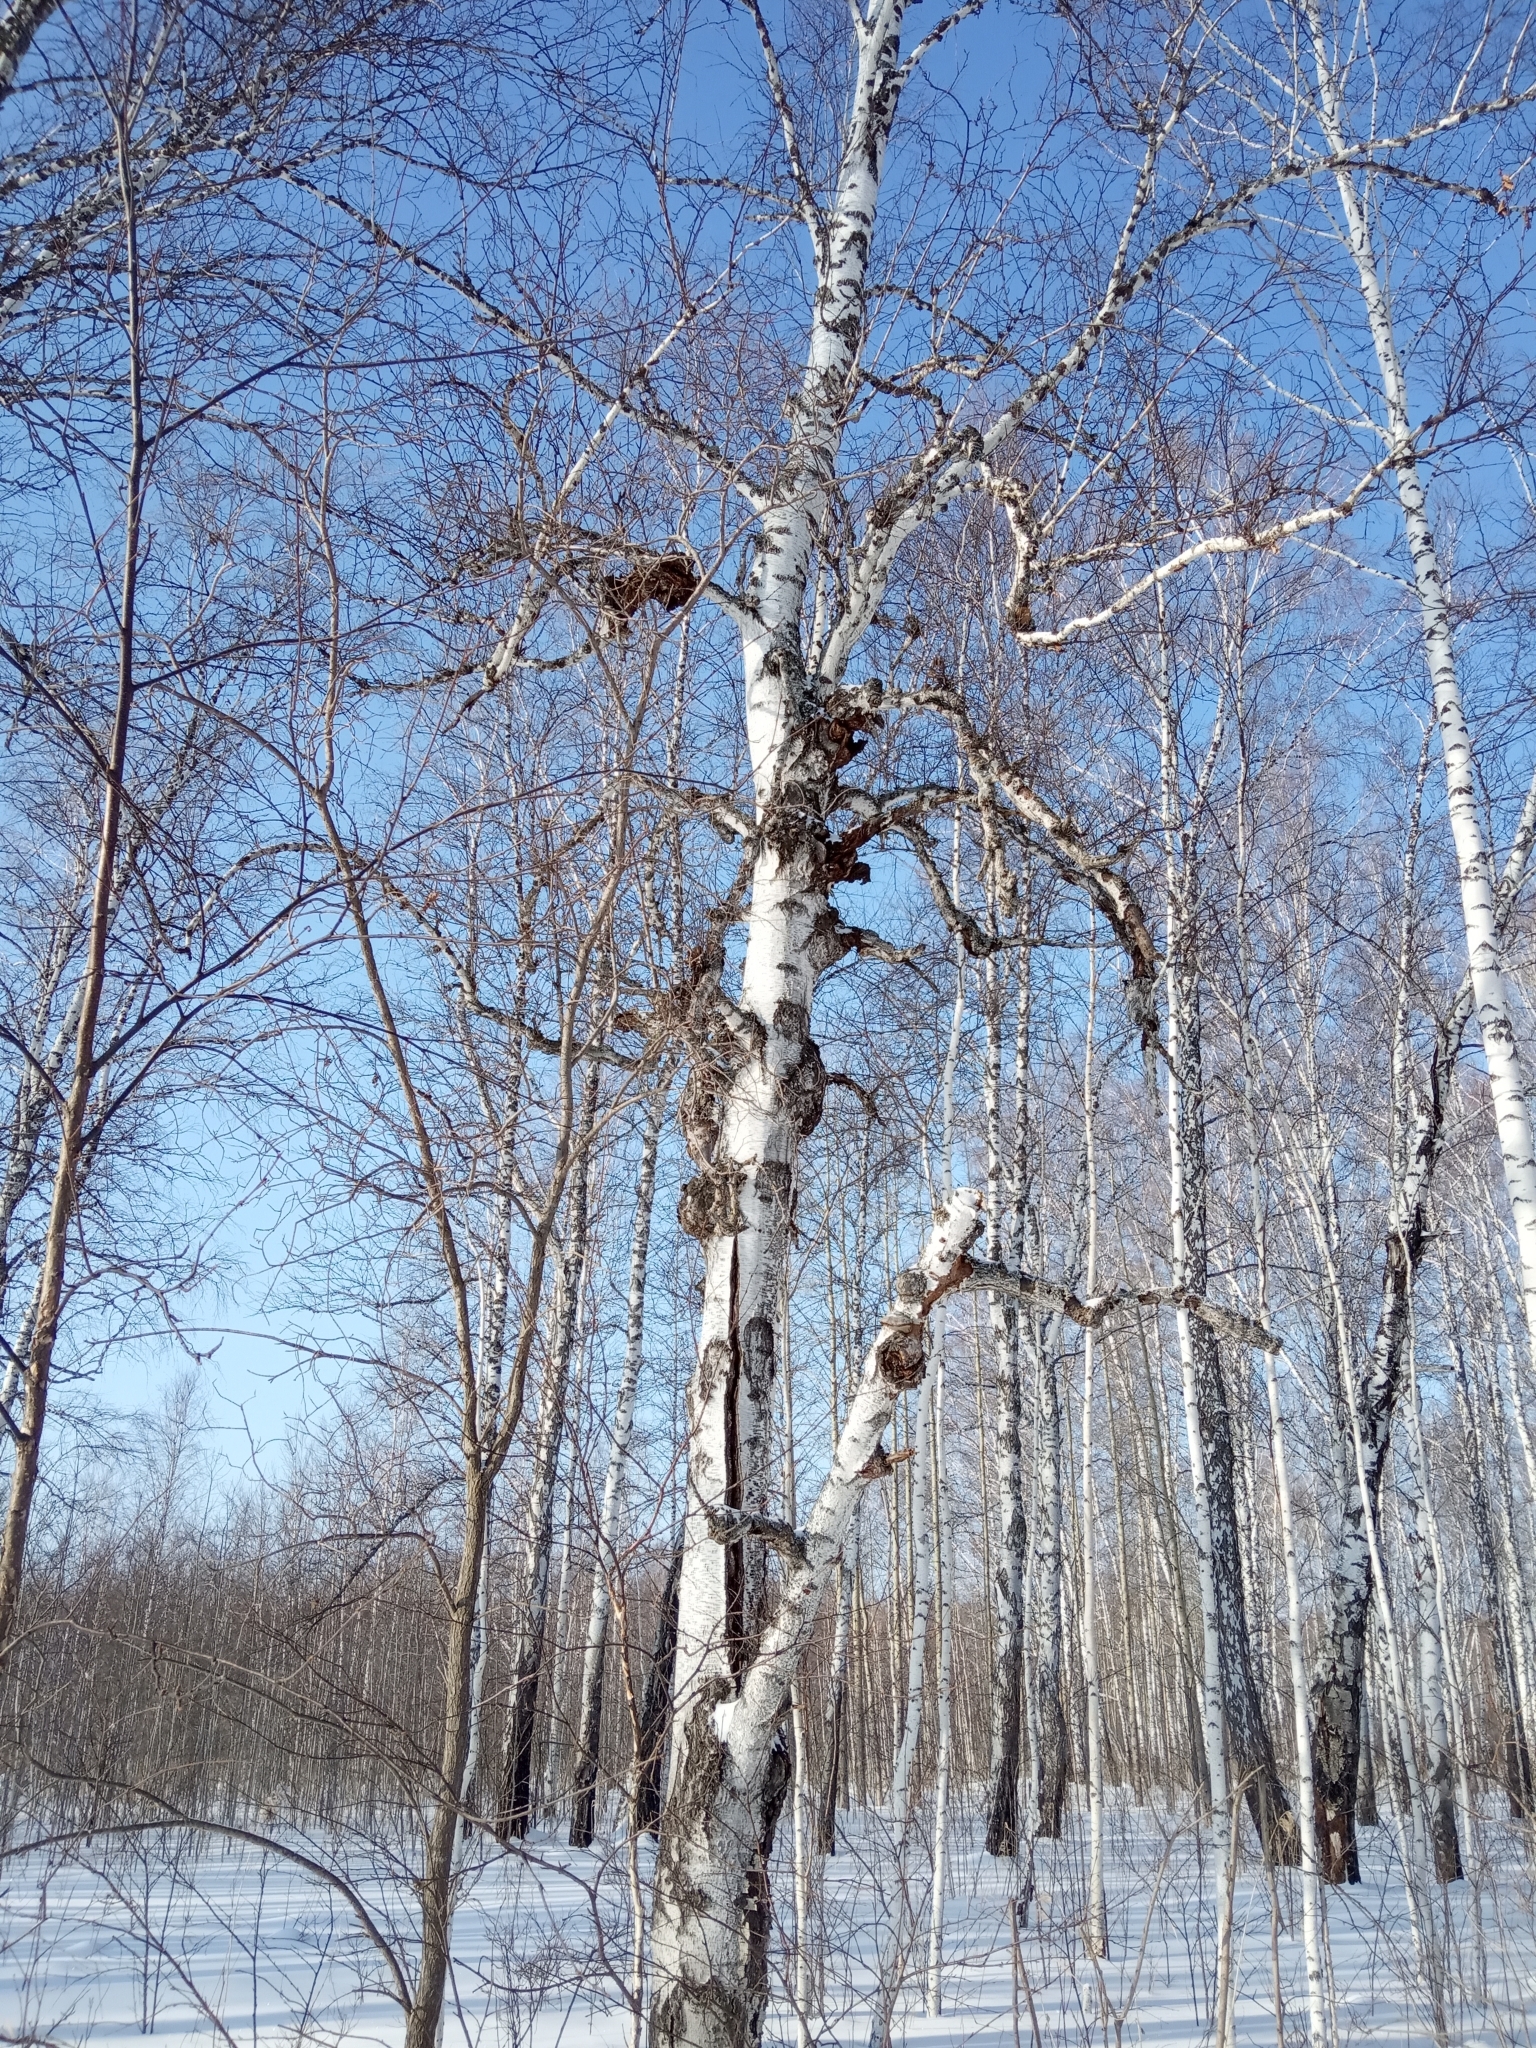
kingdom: Plantae
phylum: Tracheophyta
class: Magnoliopsida
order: Fagales
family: Betulaceae
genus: Betula
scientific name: Betula pendula
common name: Silver birch
